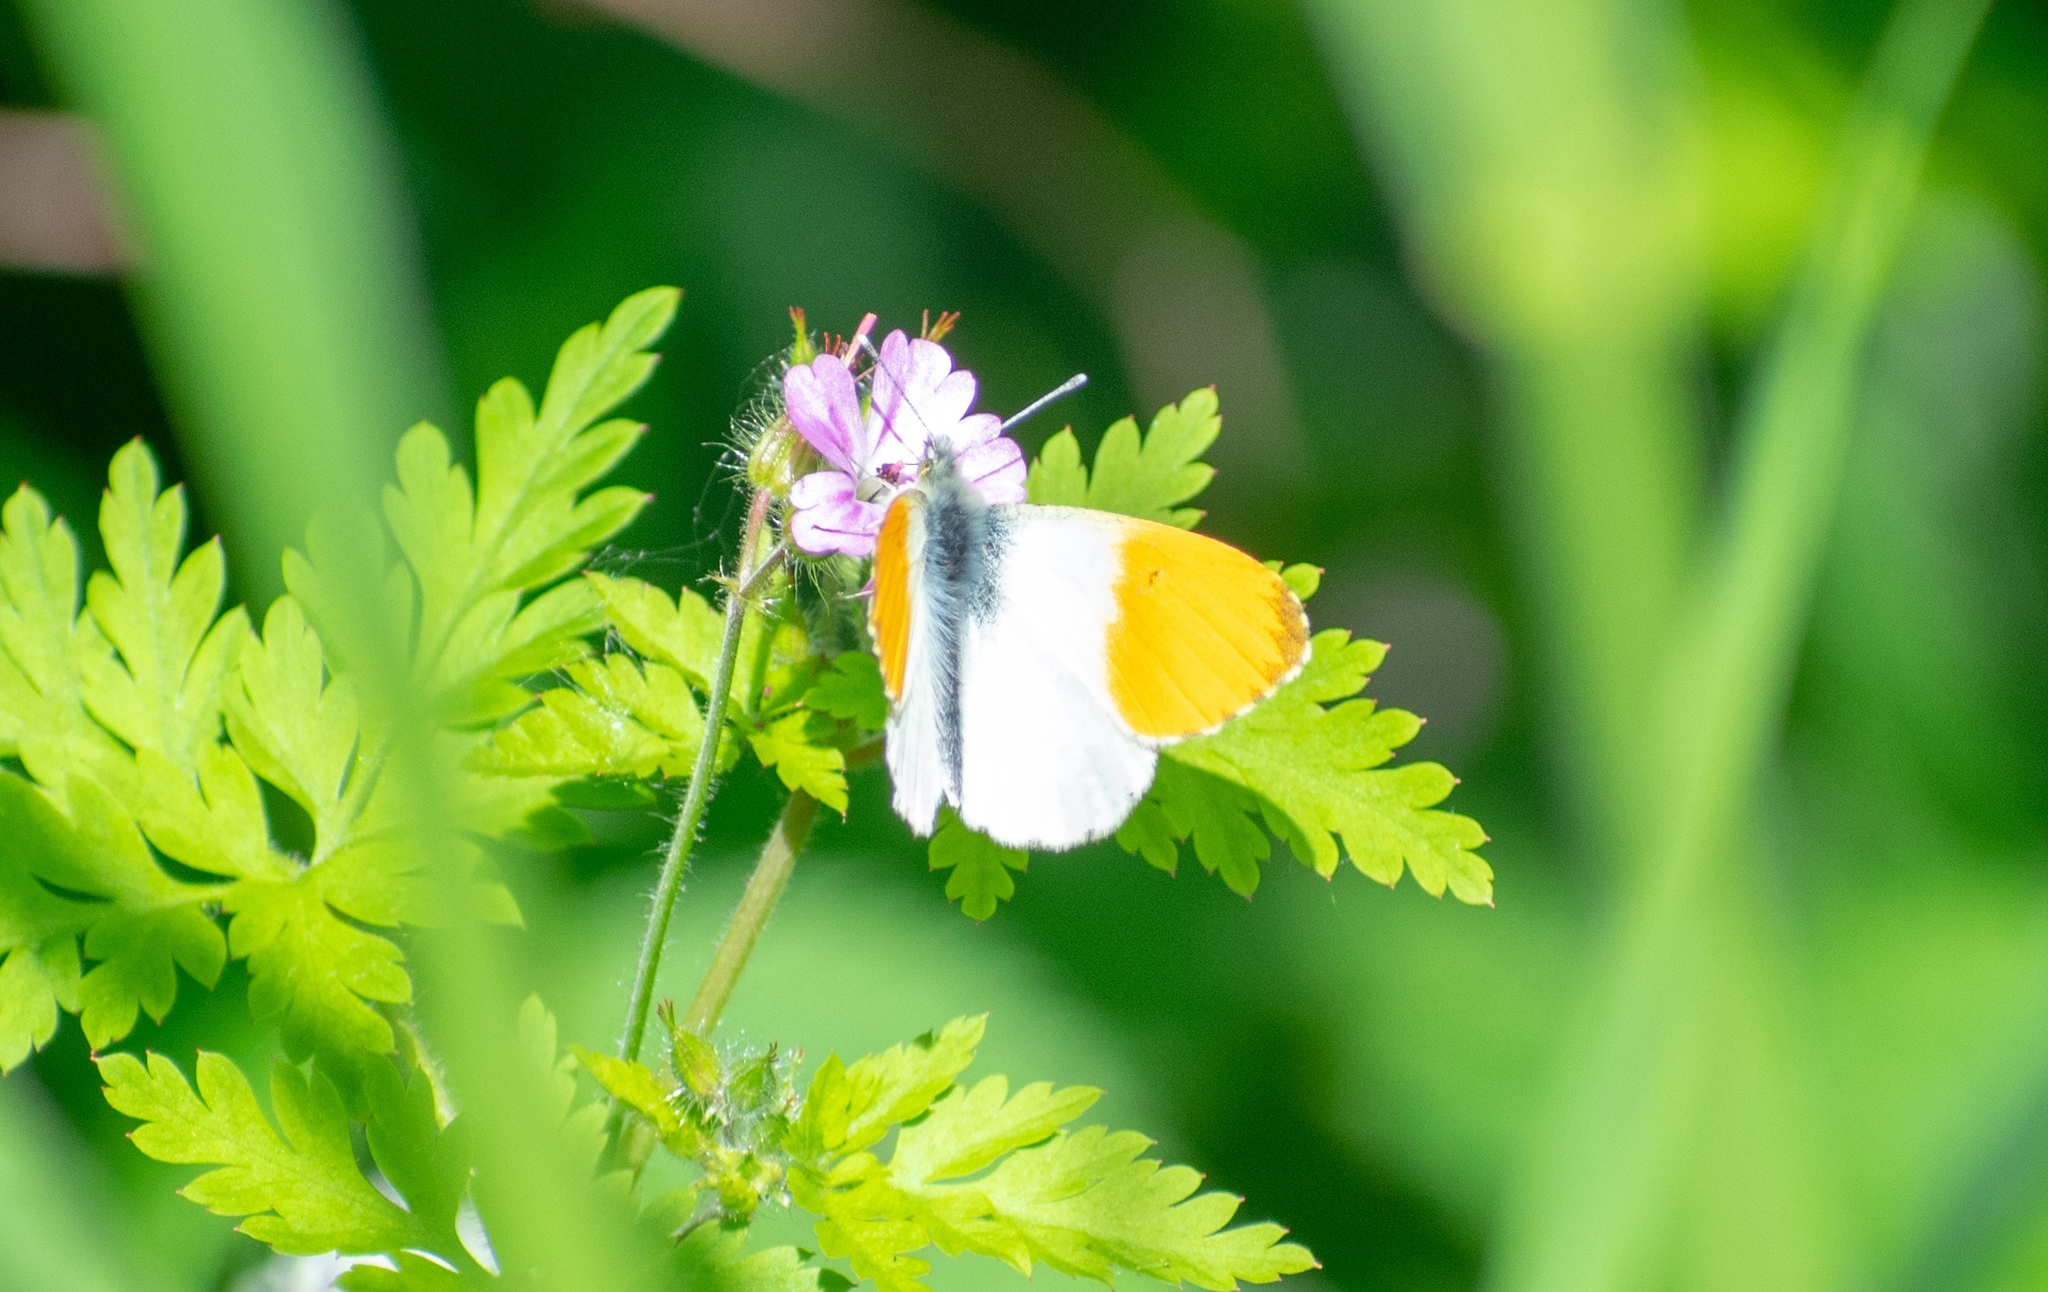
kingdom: Animalia
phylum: Arthropoda
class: Insecta
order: Lepidoptera
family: Pieridae
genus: Anthocharis
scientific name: Anthocharis cardamines
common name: Orange-tip
